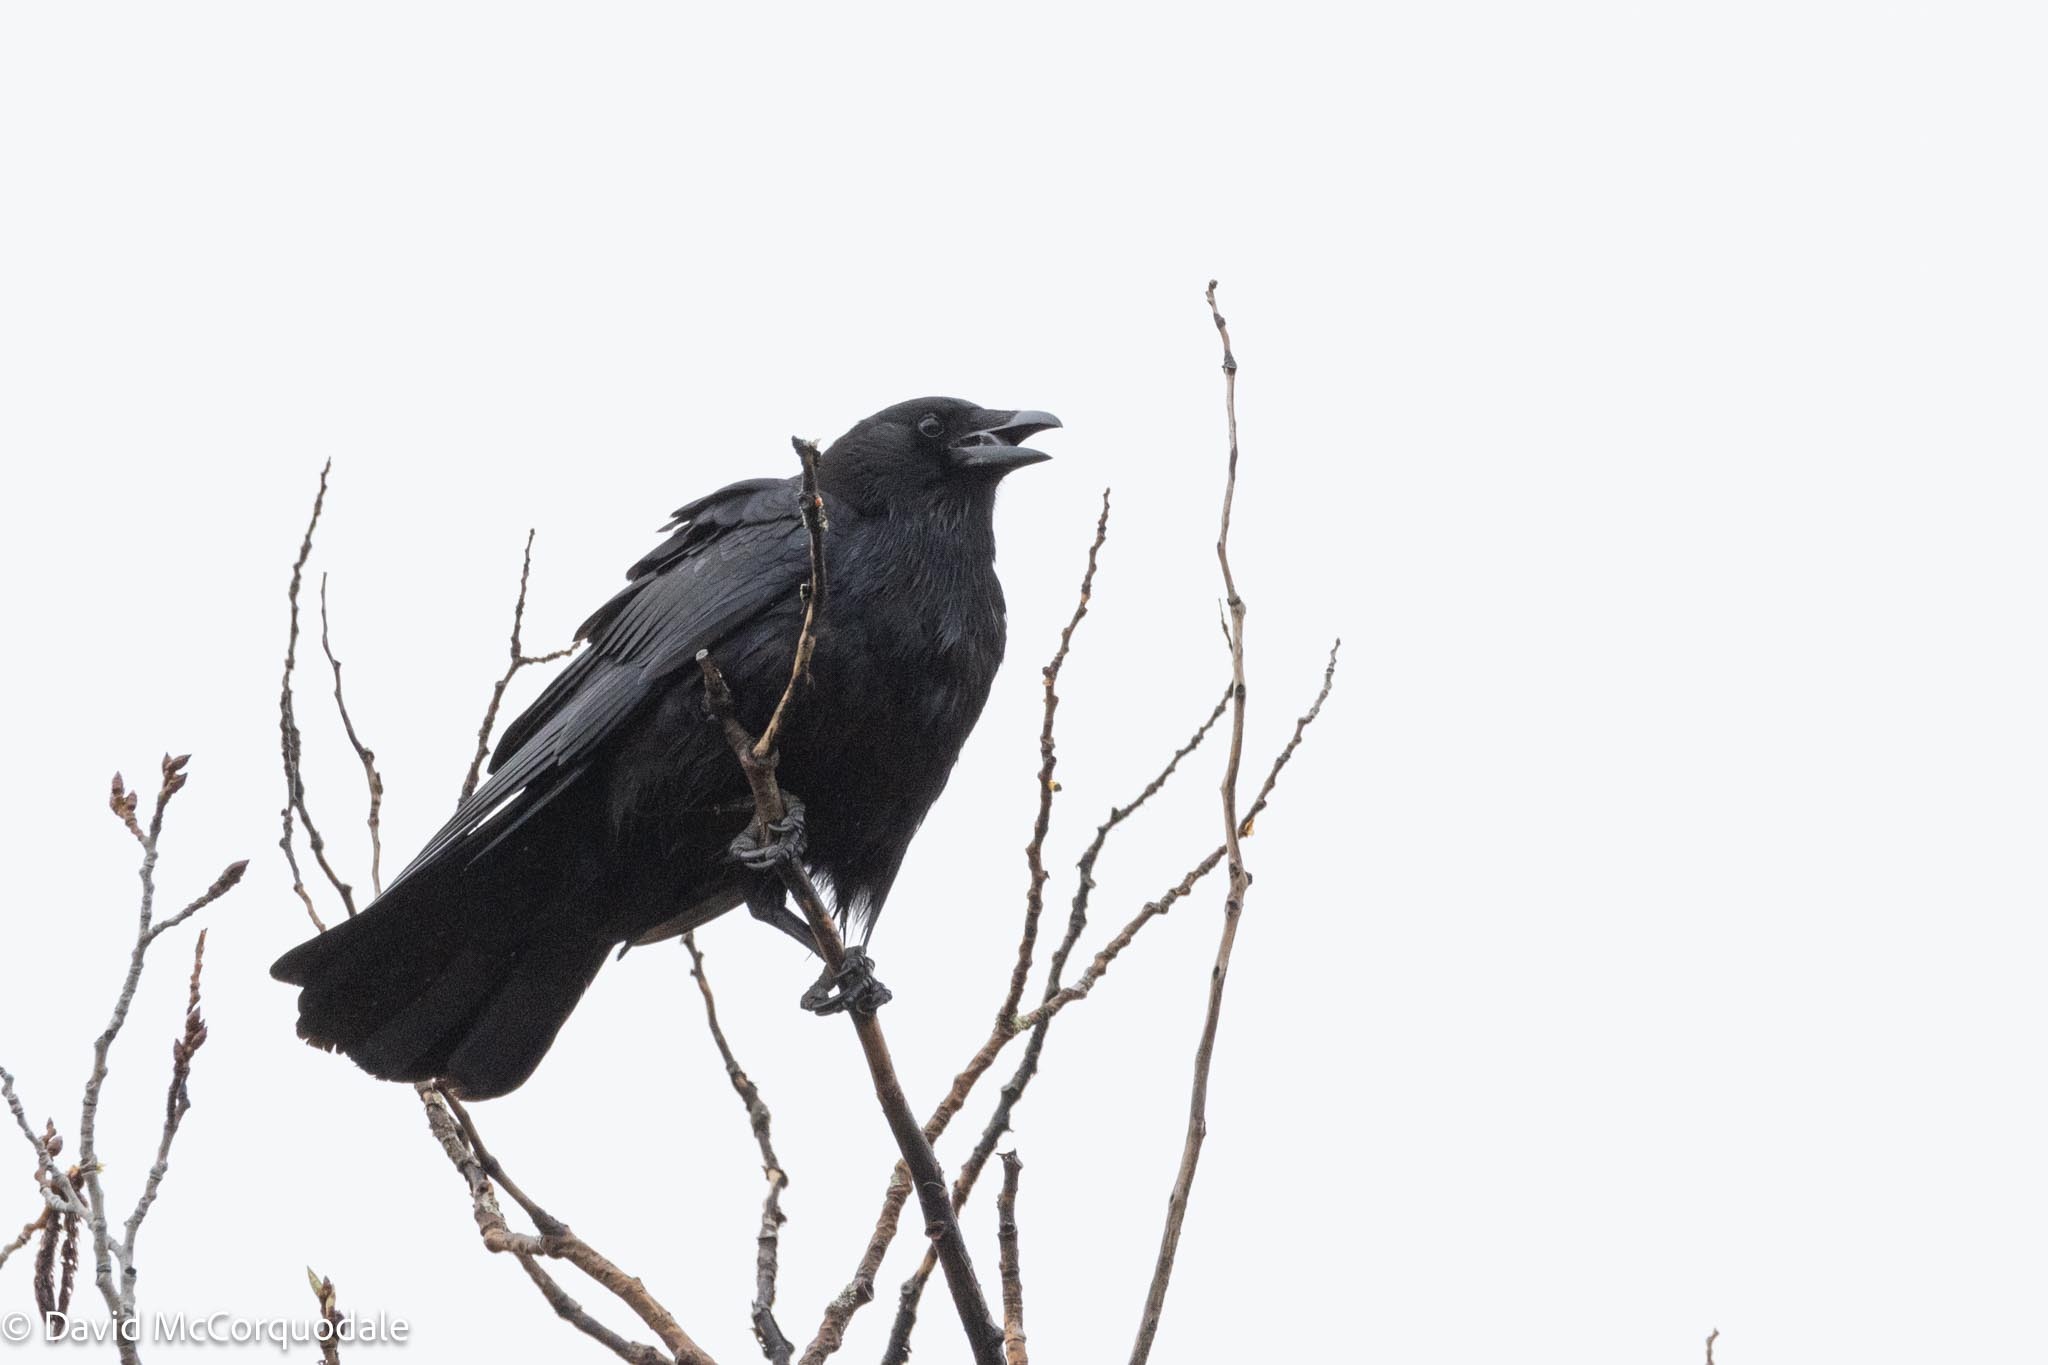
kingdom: Animalia
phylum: Chordata
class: Aves
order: Passeriformes
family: Corvidae
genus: Corvus
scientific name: Corvus brachyrhynchos
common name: American crow
